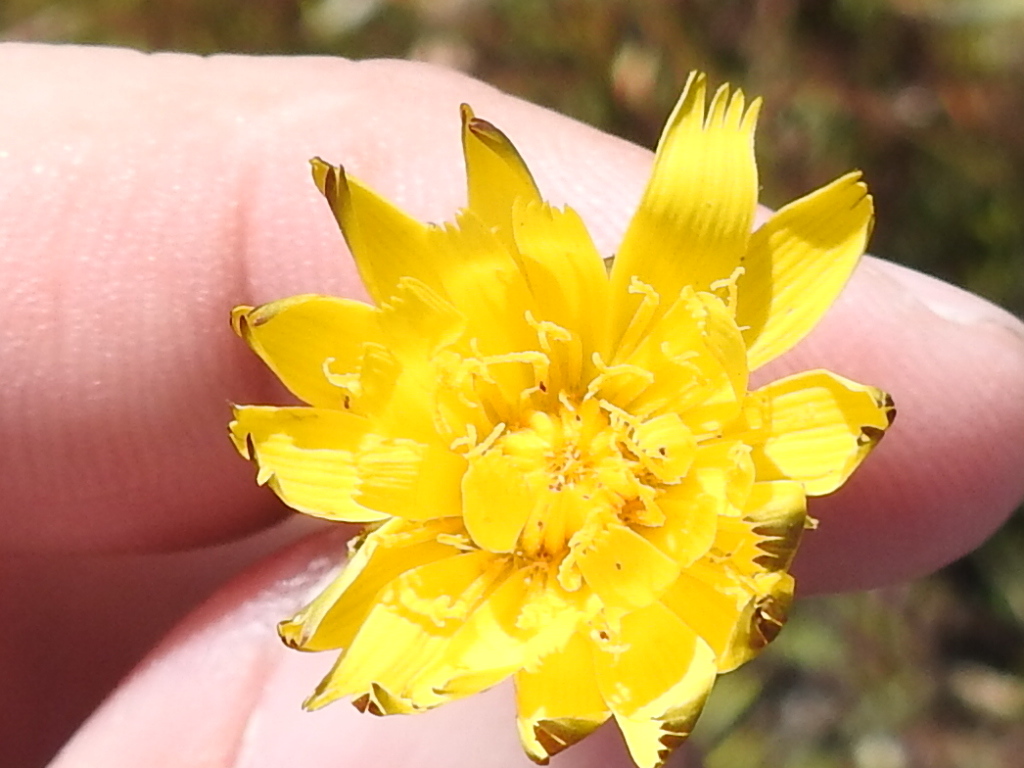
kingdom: Plantae
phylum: Tracheophyta
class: Magnoliopsida
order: Asterales
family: Asteraceae
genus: Crepis
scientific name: Crepis vesicaria
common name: Beaked hawksbeard
